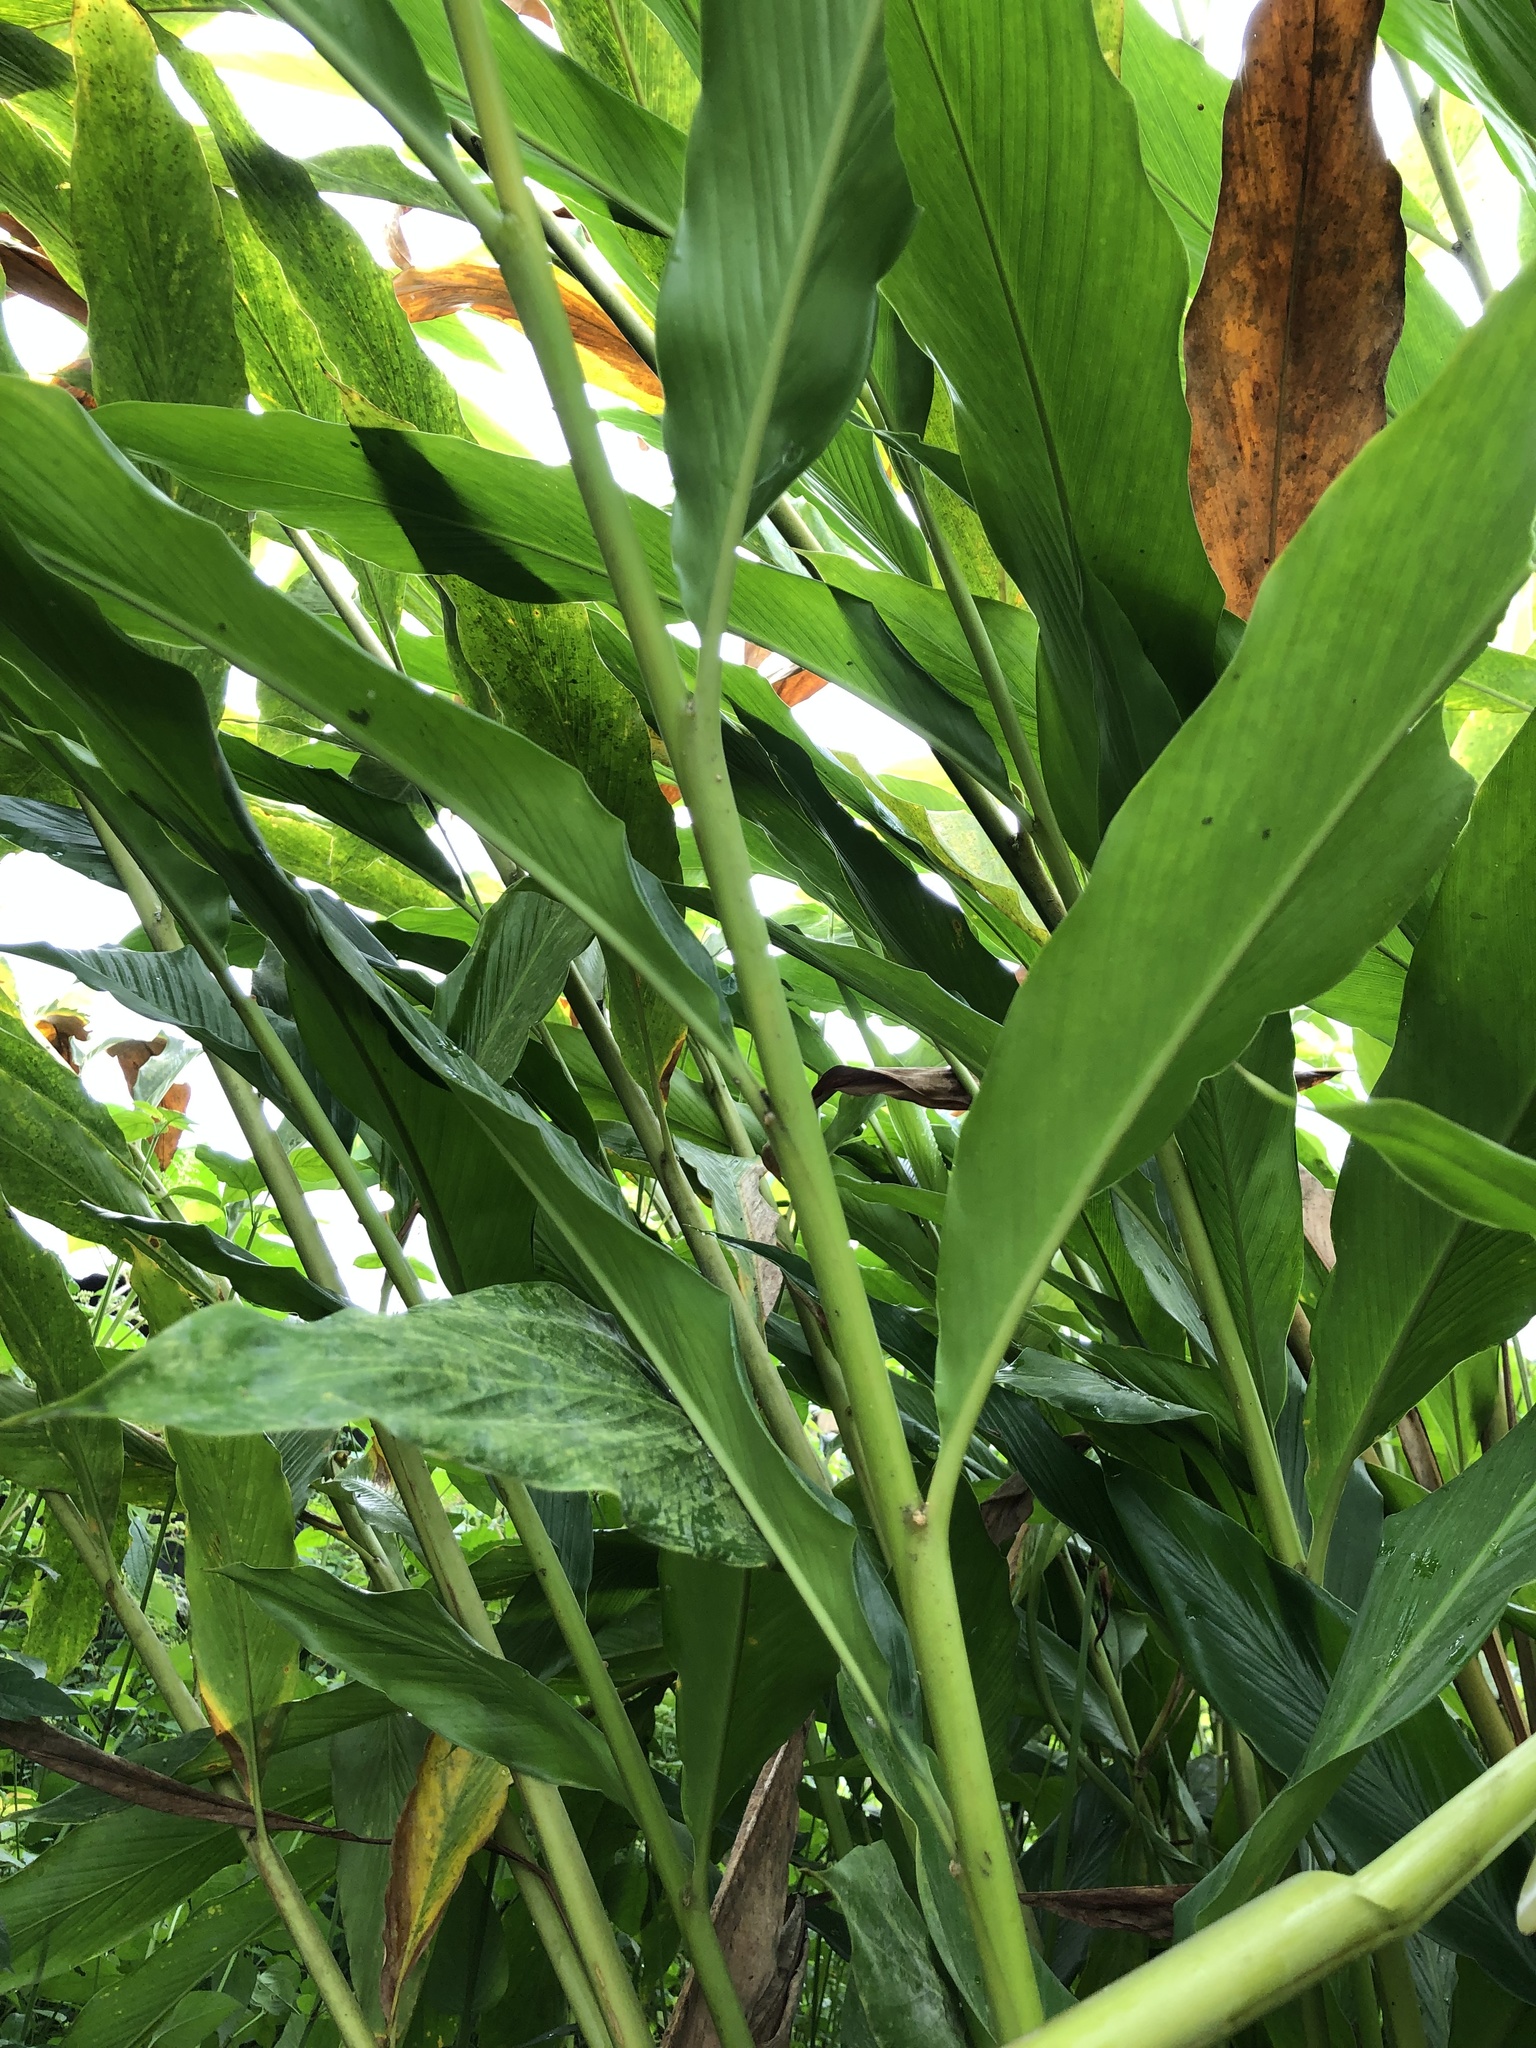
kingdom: Plantae
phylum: Tracheophyta
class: Liliopsida
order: Zingiberales
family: Zingiberaceae
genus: Elettaria
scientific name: Elettaria cardamomum
